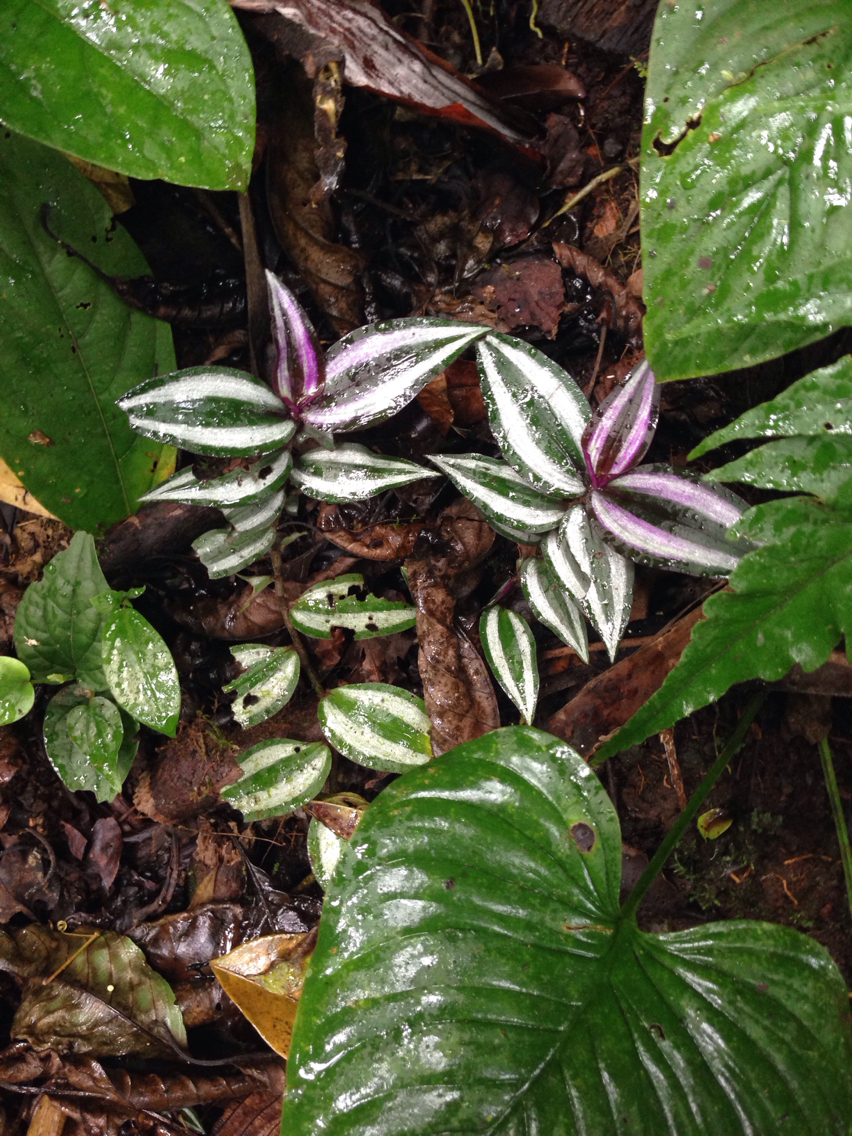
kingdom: Plantae
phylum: Tracheophyta
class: Liliopsida
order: Commelinales
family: Commelinaceae
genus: Tradescantia
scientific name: Tradescantia zebrina
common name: Inchplant
